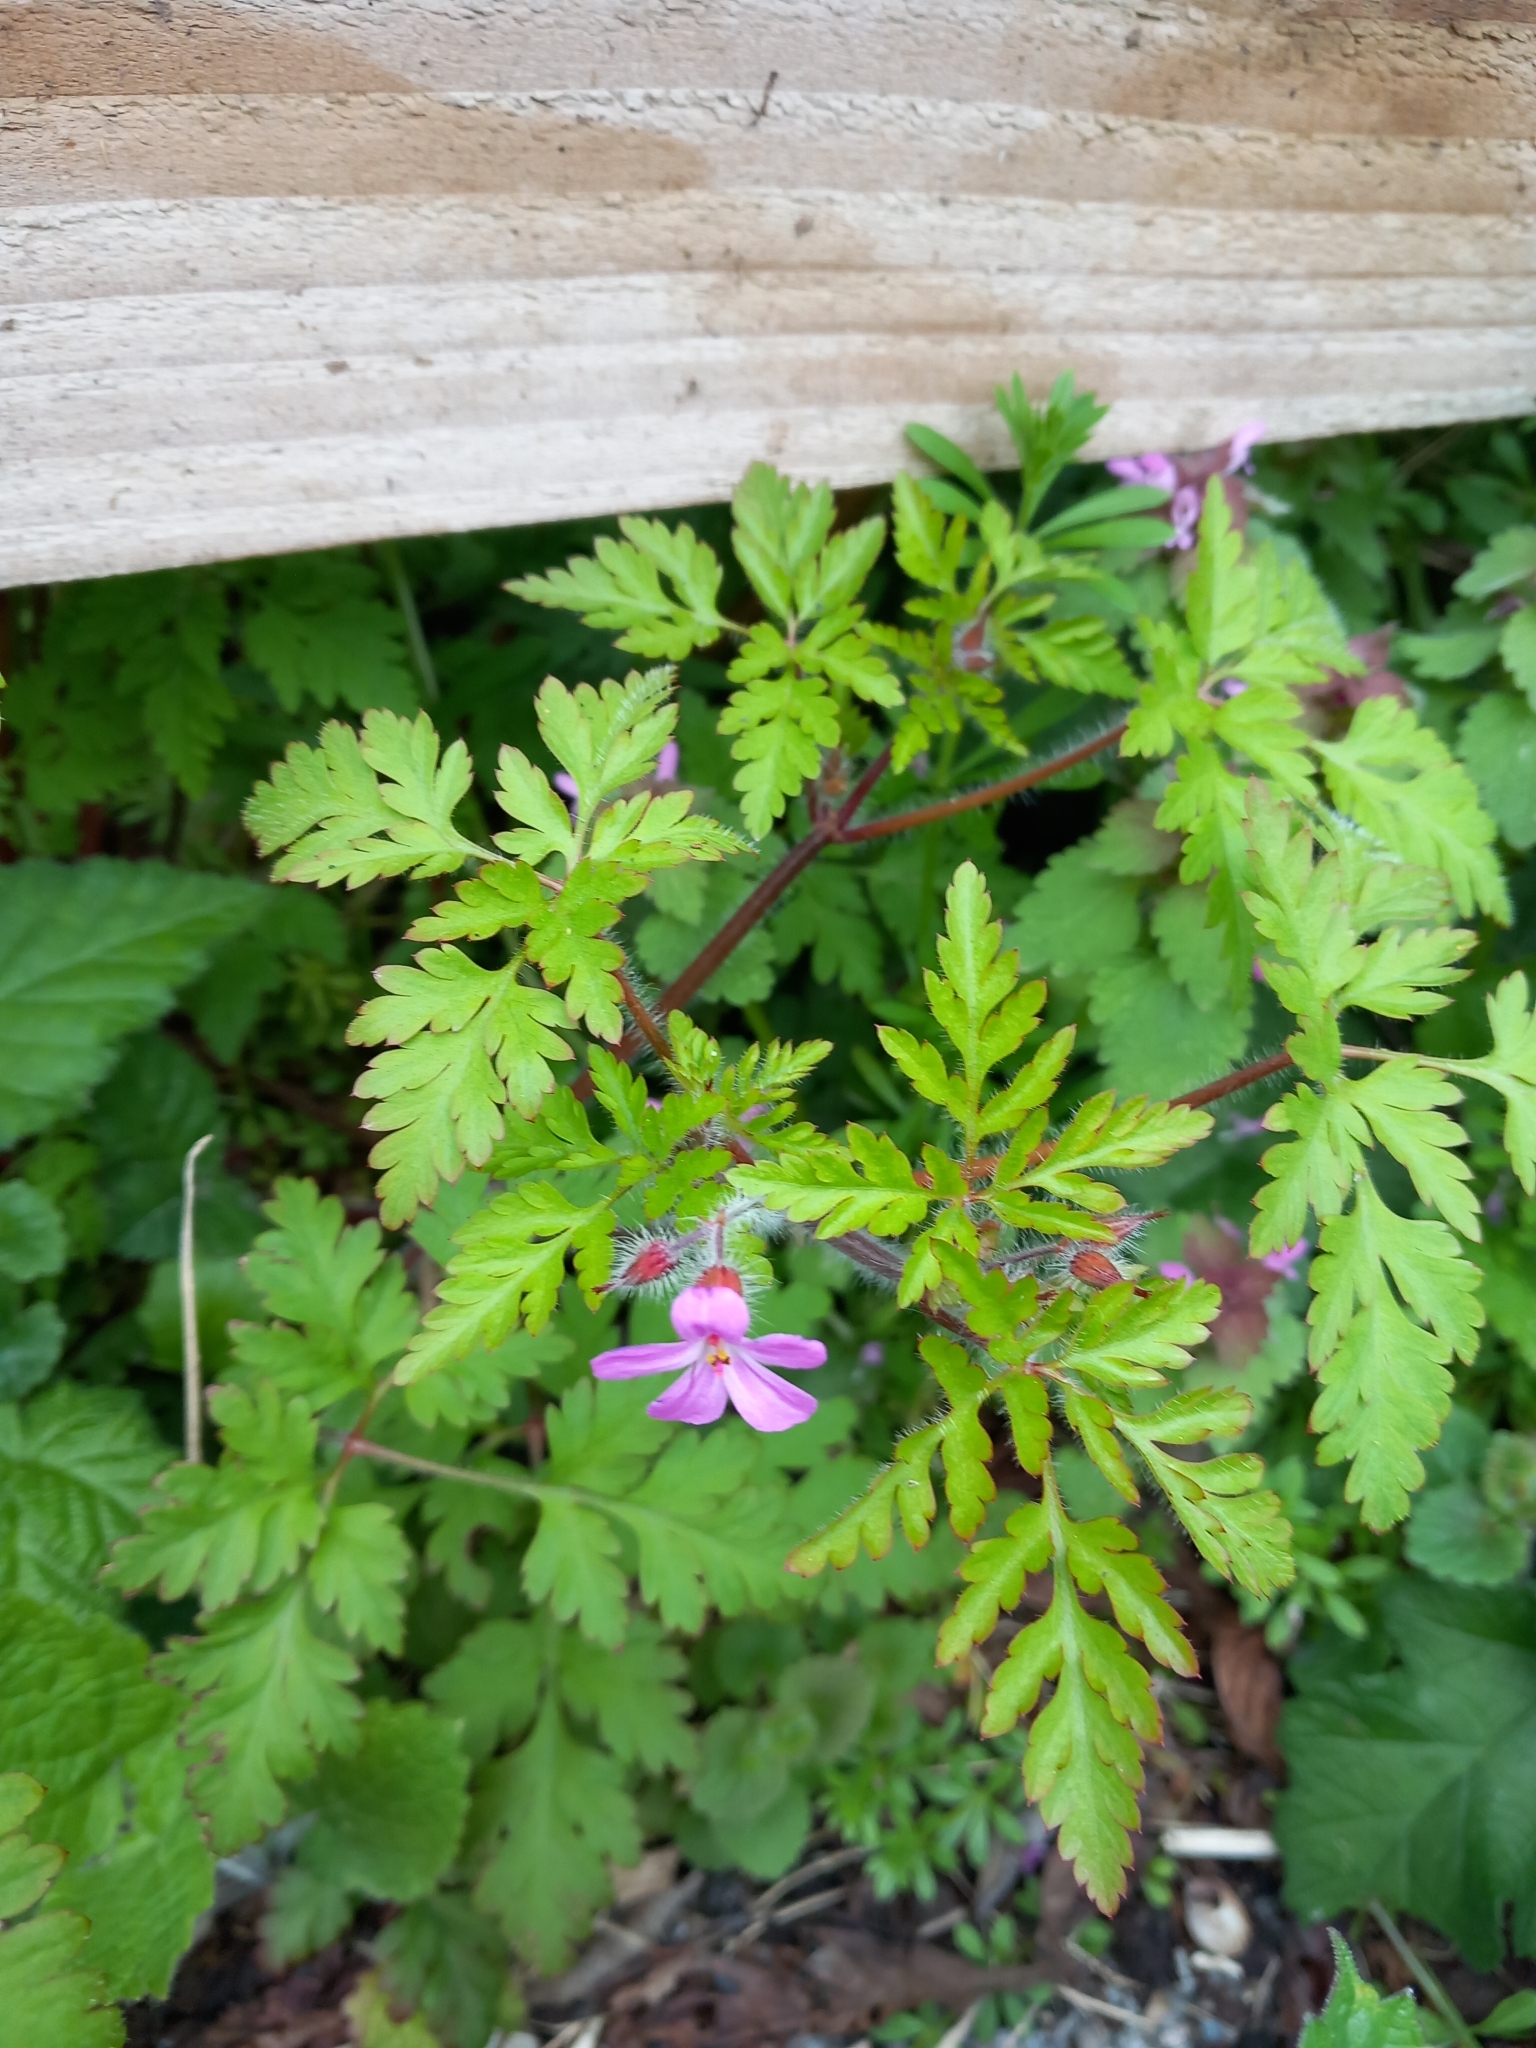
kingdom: Plantae
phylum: Tracheophyta
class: Magnoliopsida
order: Geraniales
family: Geraniaceae
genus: Geranium
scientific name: Geranium robertianum
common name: Herb-robert
